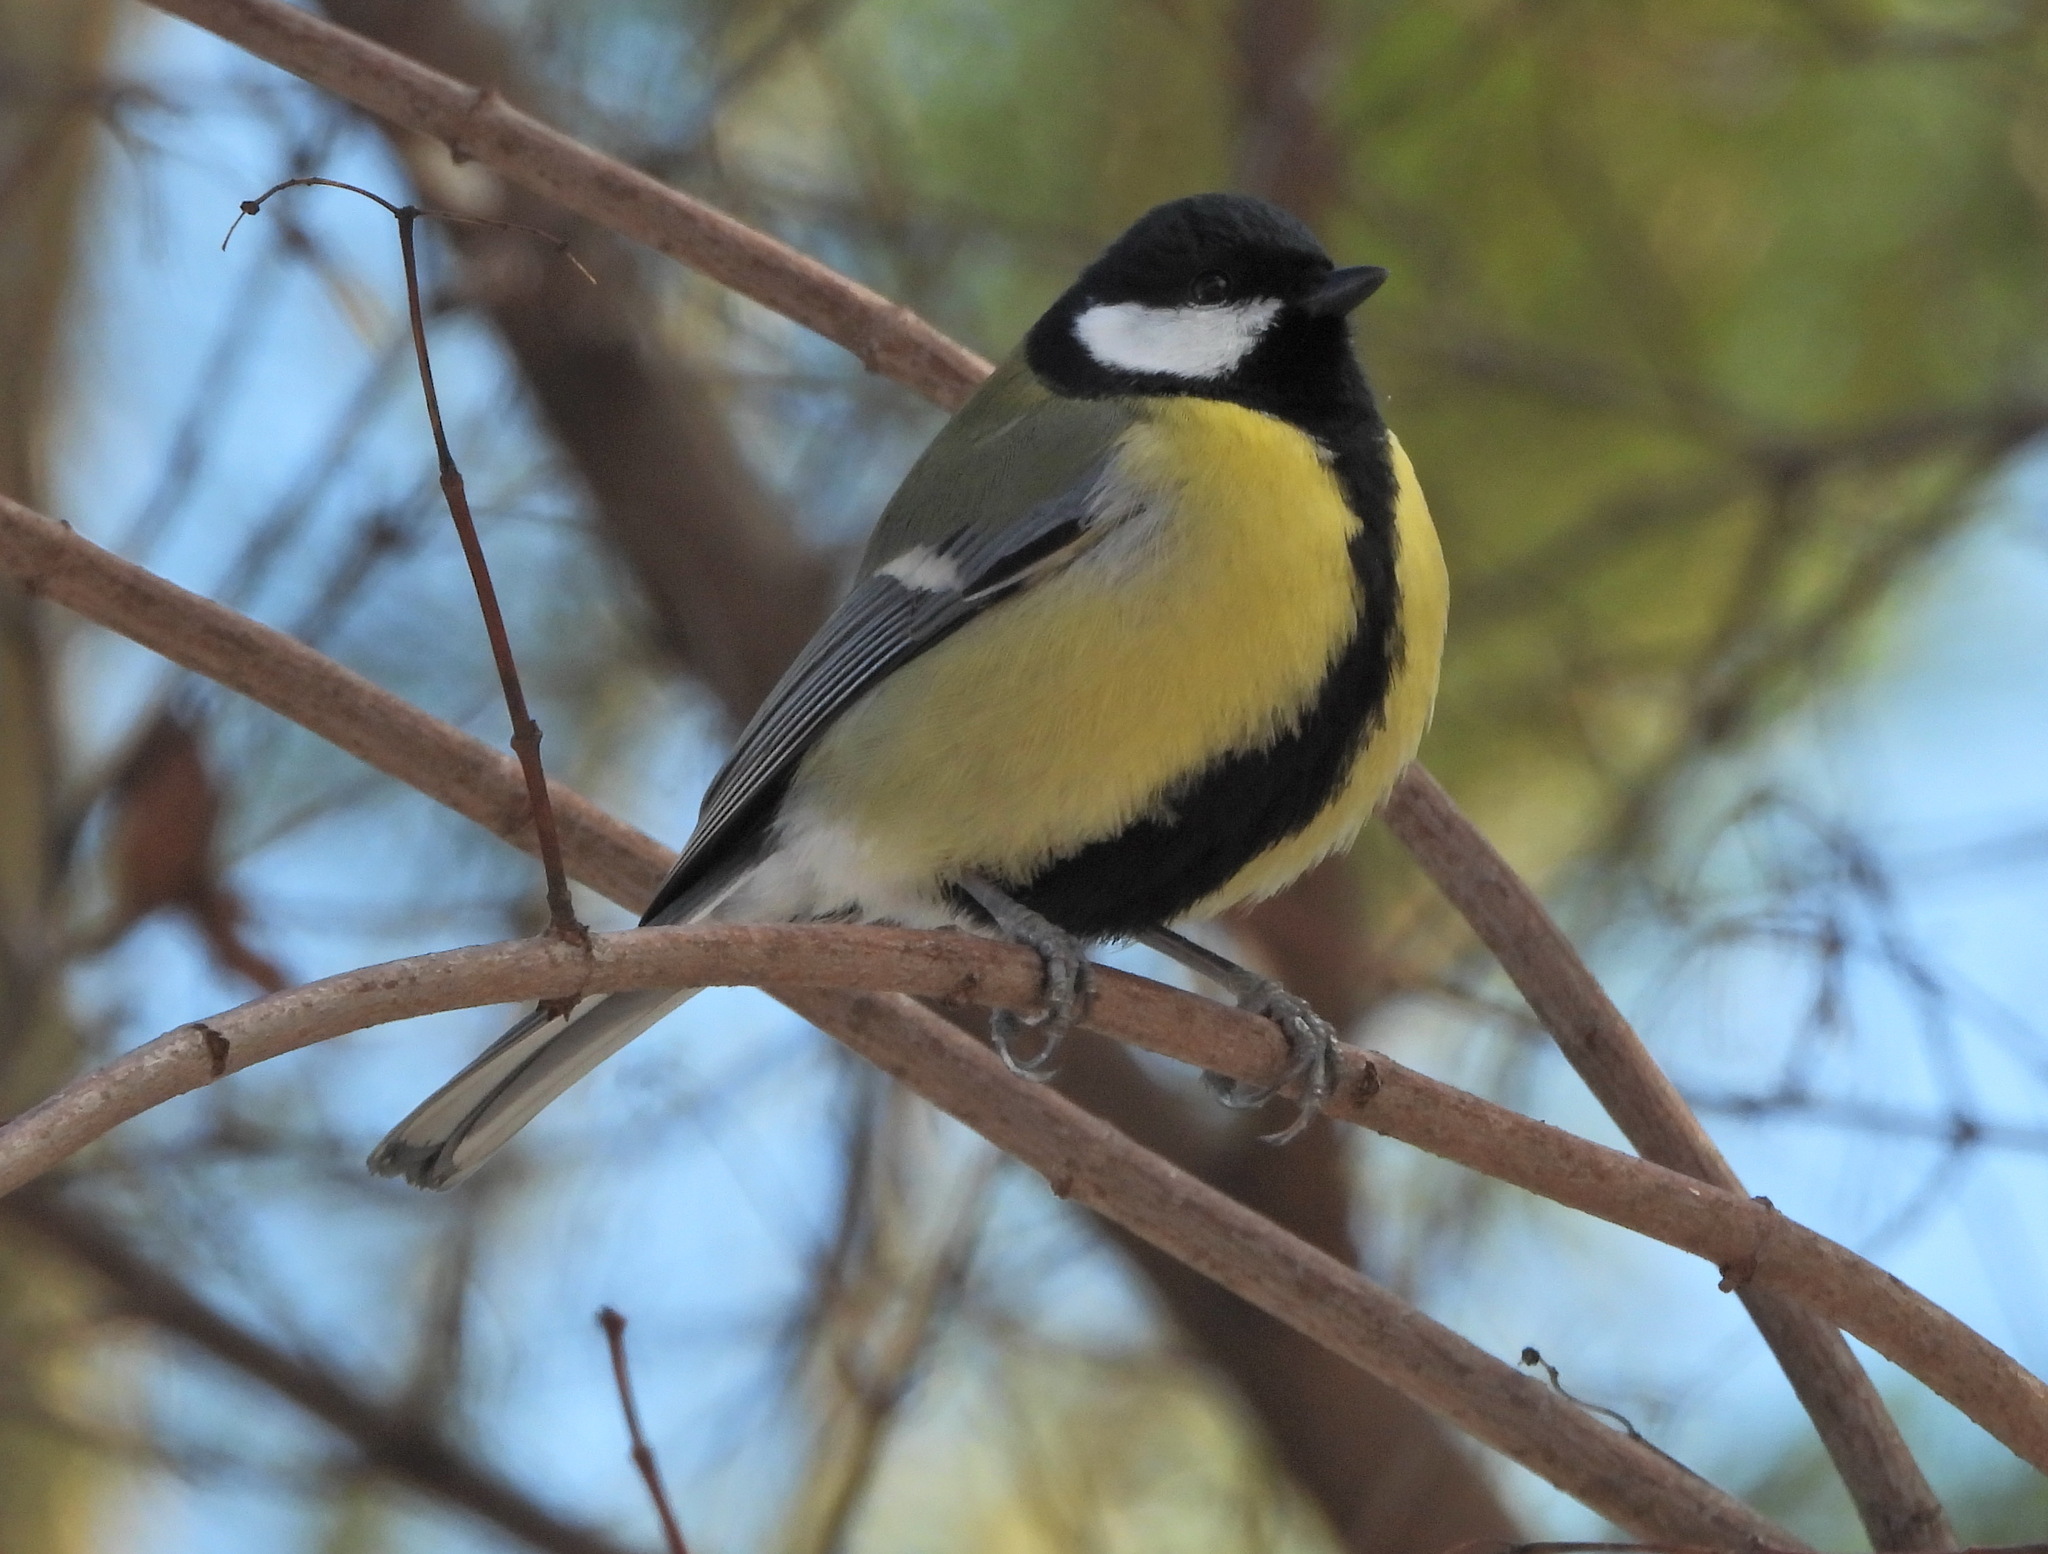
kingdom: Animalia
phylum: Chordata
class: Aves
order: Passeriformes
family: Paridae
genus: Parus
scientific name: Parus major
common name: Great tit
